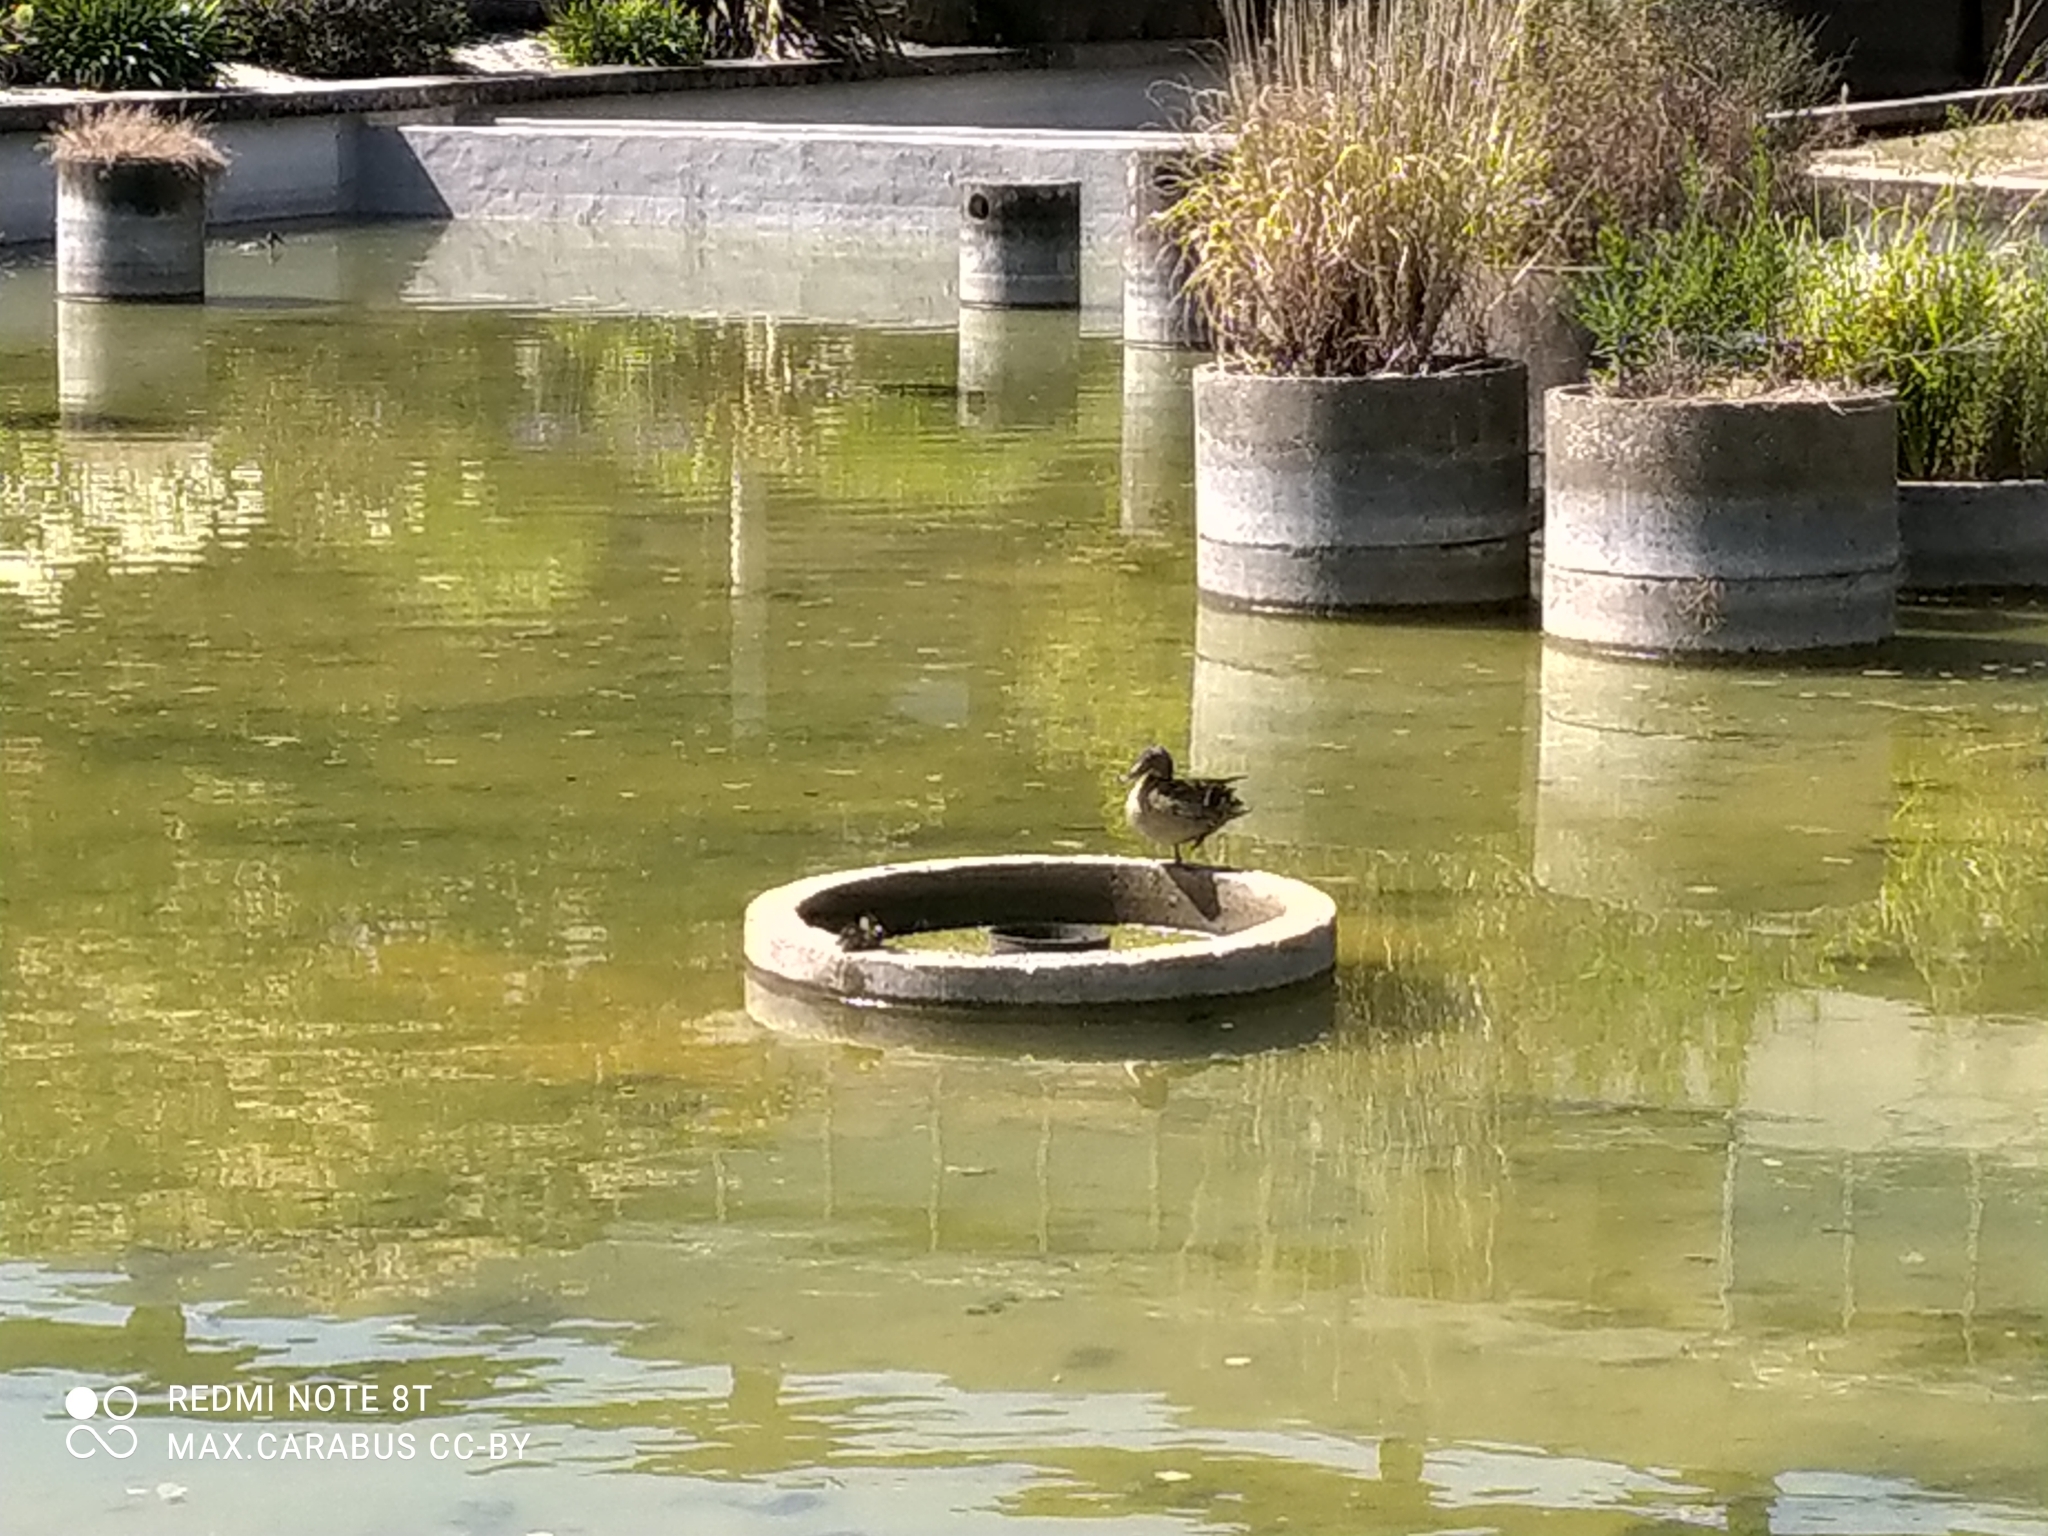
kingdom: Animalia
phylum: Chordata
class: Aves
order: Anseriformes
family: Anatidae
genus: Anas
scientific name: Anas platyrhynchos
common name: Mallard
